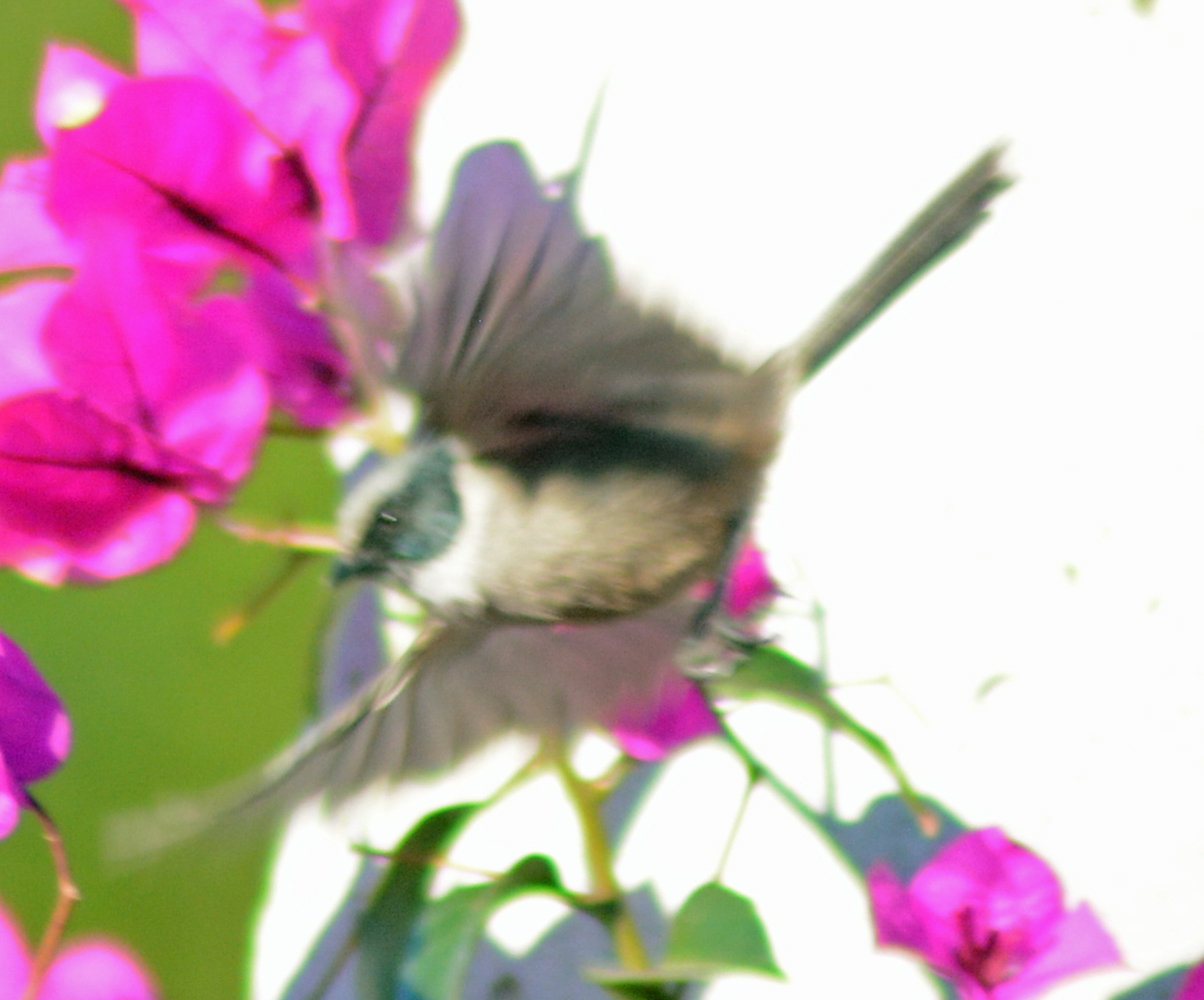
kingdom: Animalia
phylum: Chordata
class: Aves
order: Passeriformes
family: Aegithalidae
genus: Psaltriparus
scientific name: Psaltriparus minimus
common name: American bushtit
